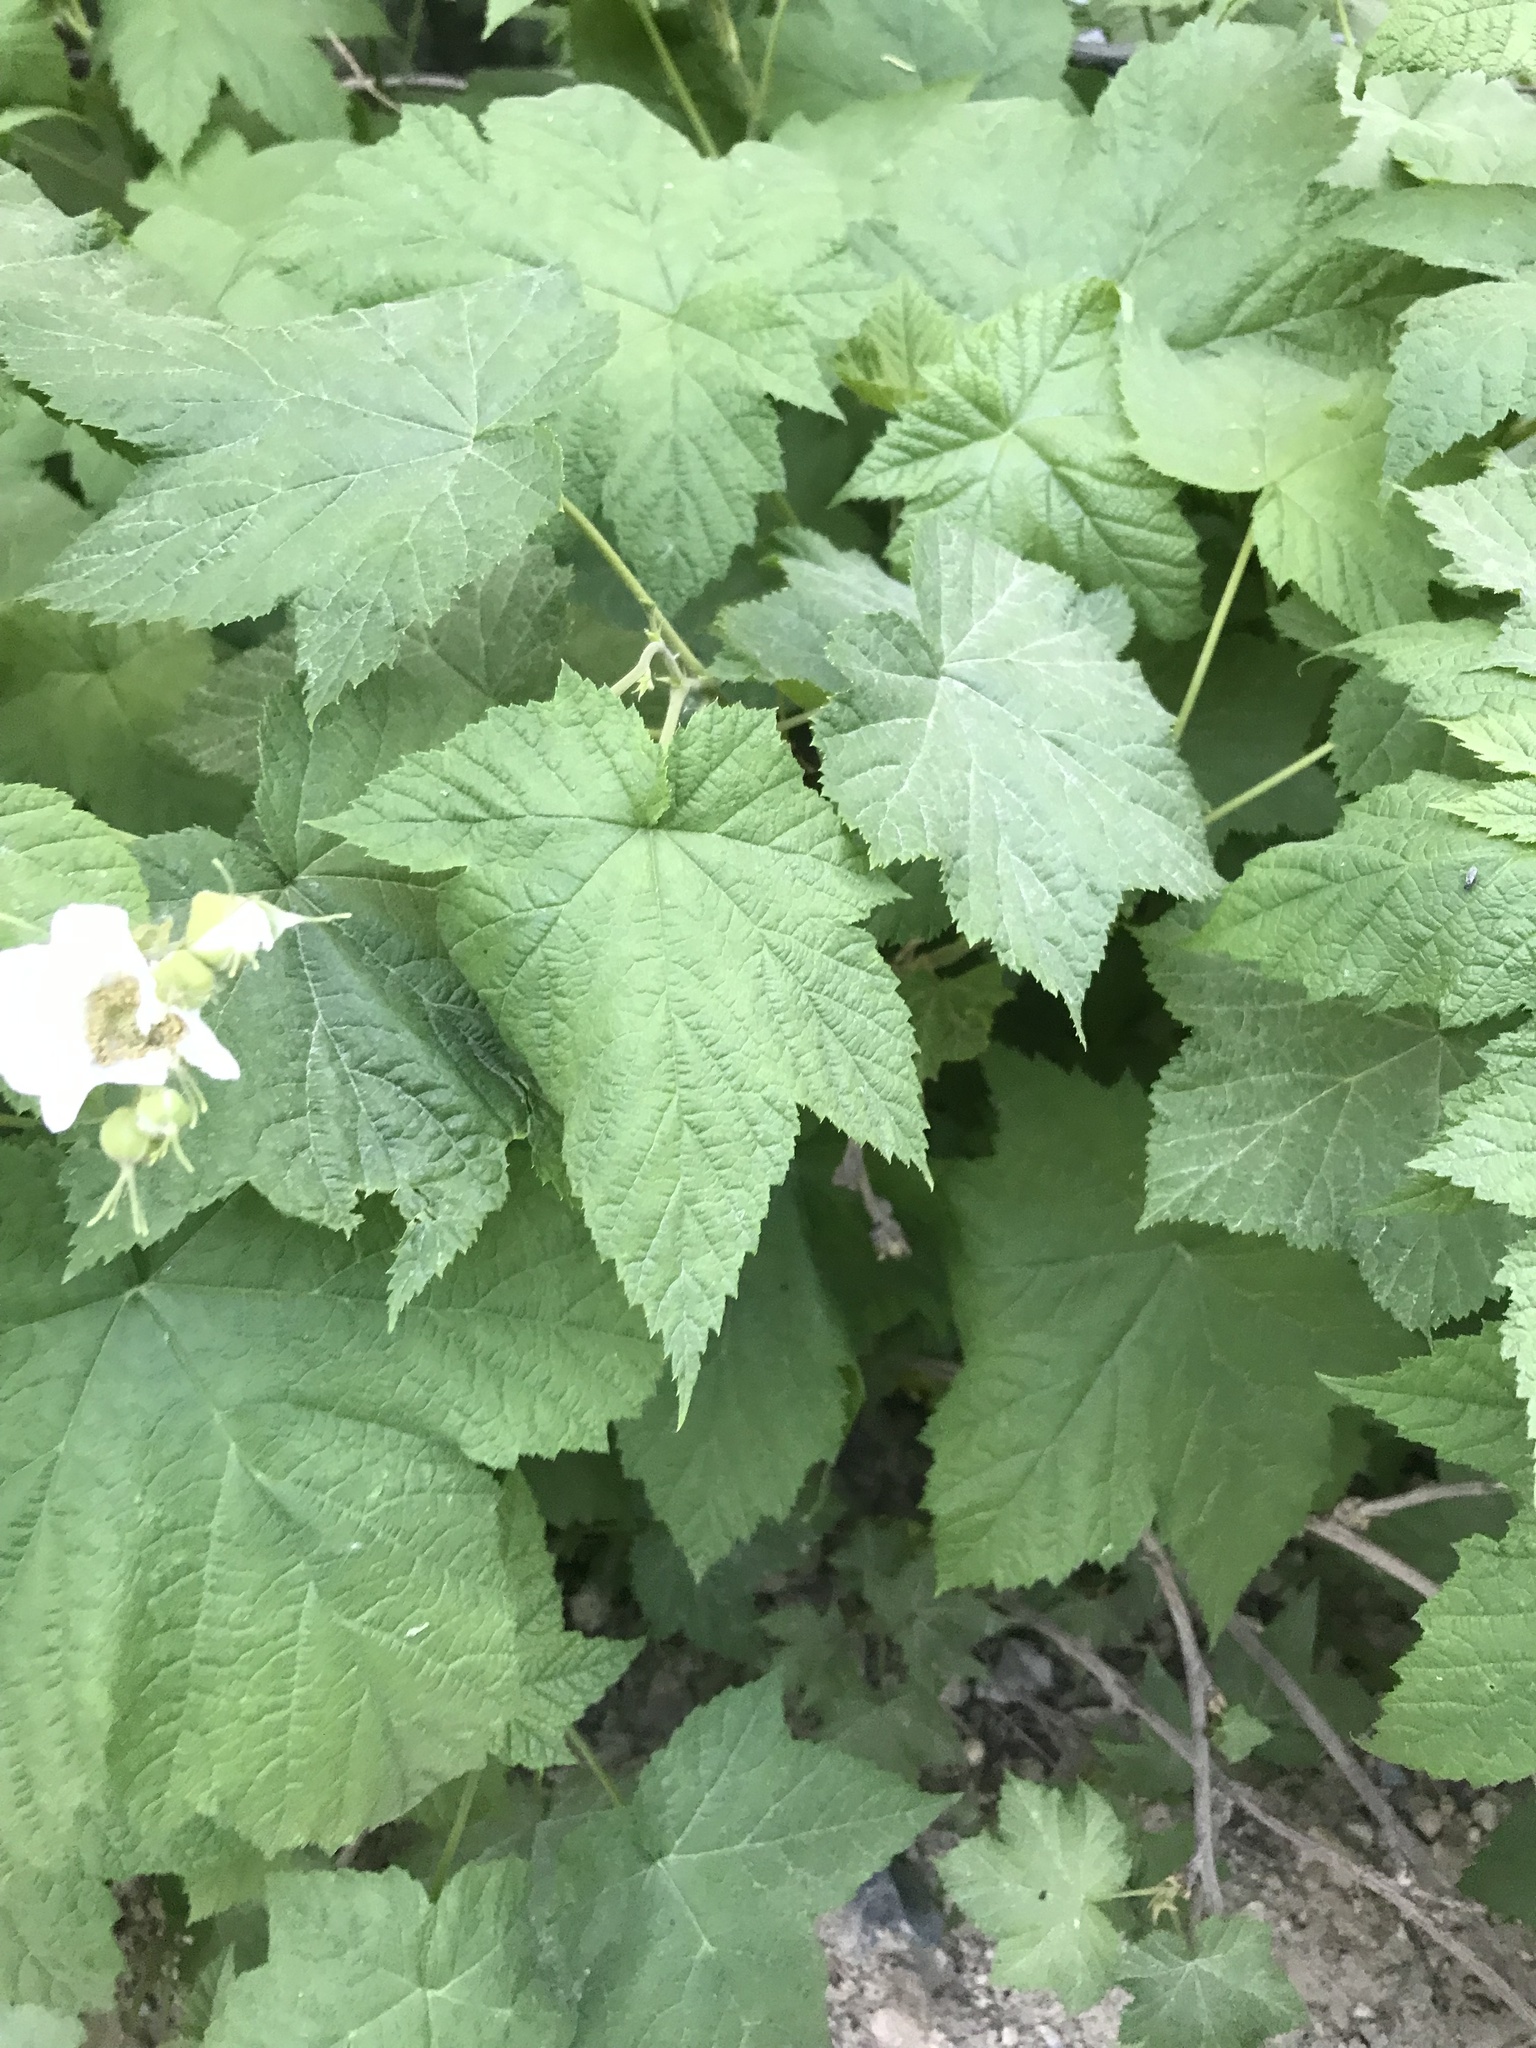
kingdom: Plantae
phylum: Tracheophyta
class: Magnoliopsida
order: Rosales
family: Rosaceae
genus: Rubus
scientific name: Rubus parviflorus
